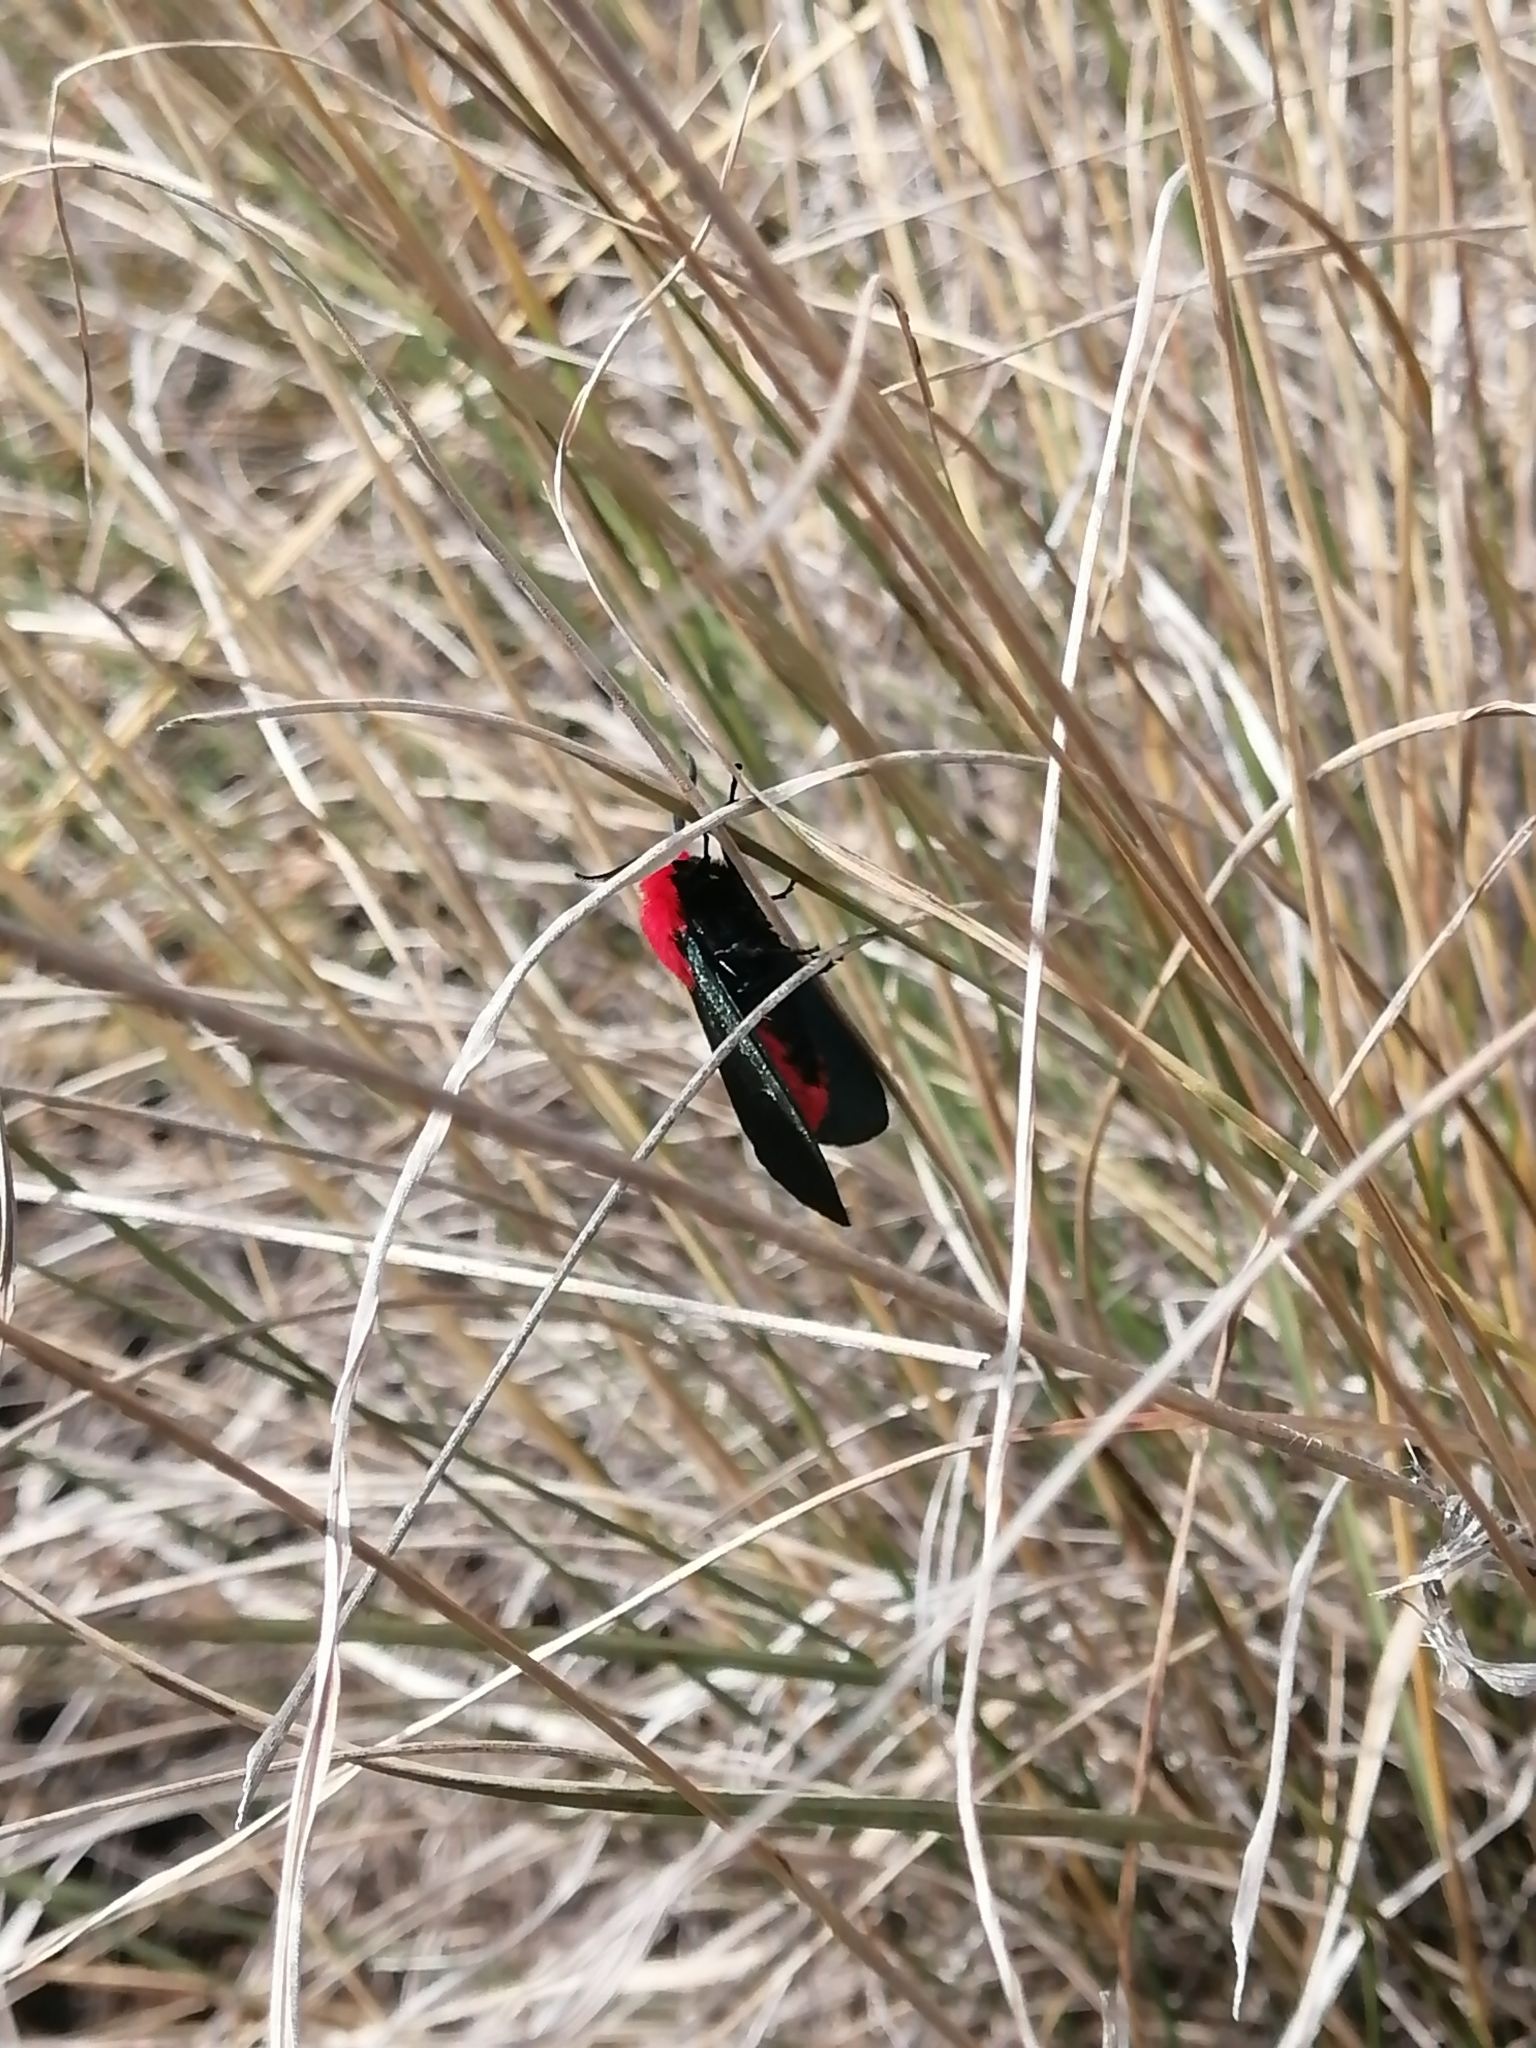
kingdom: Animalia
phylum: Arthropoda
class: Insecta
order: Lepidoptera
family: Erebidae
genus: Lerina
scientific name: Lerina incarnata
